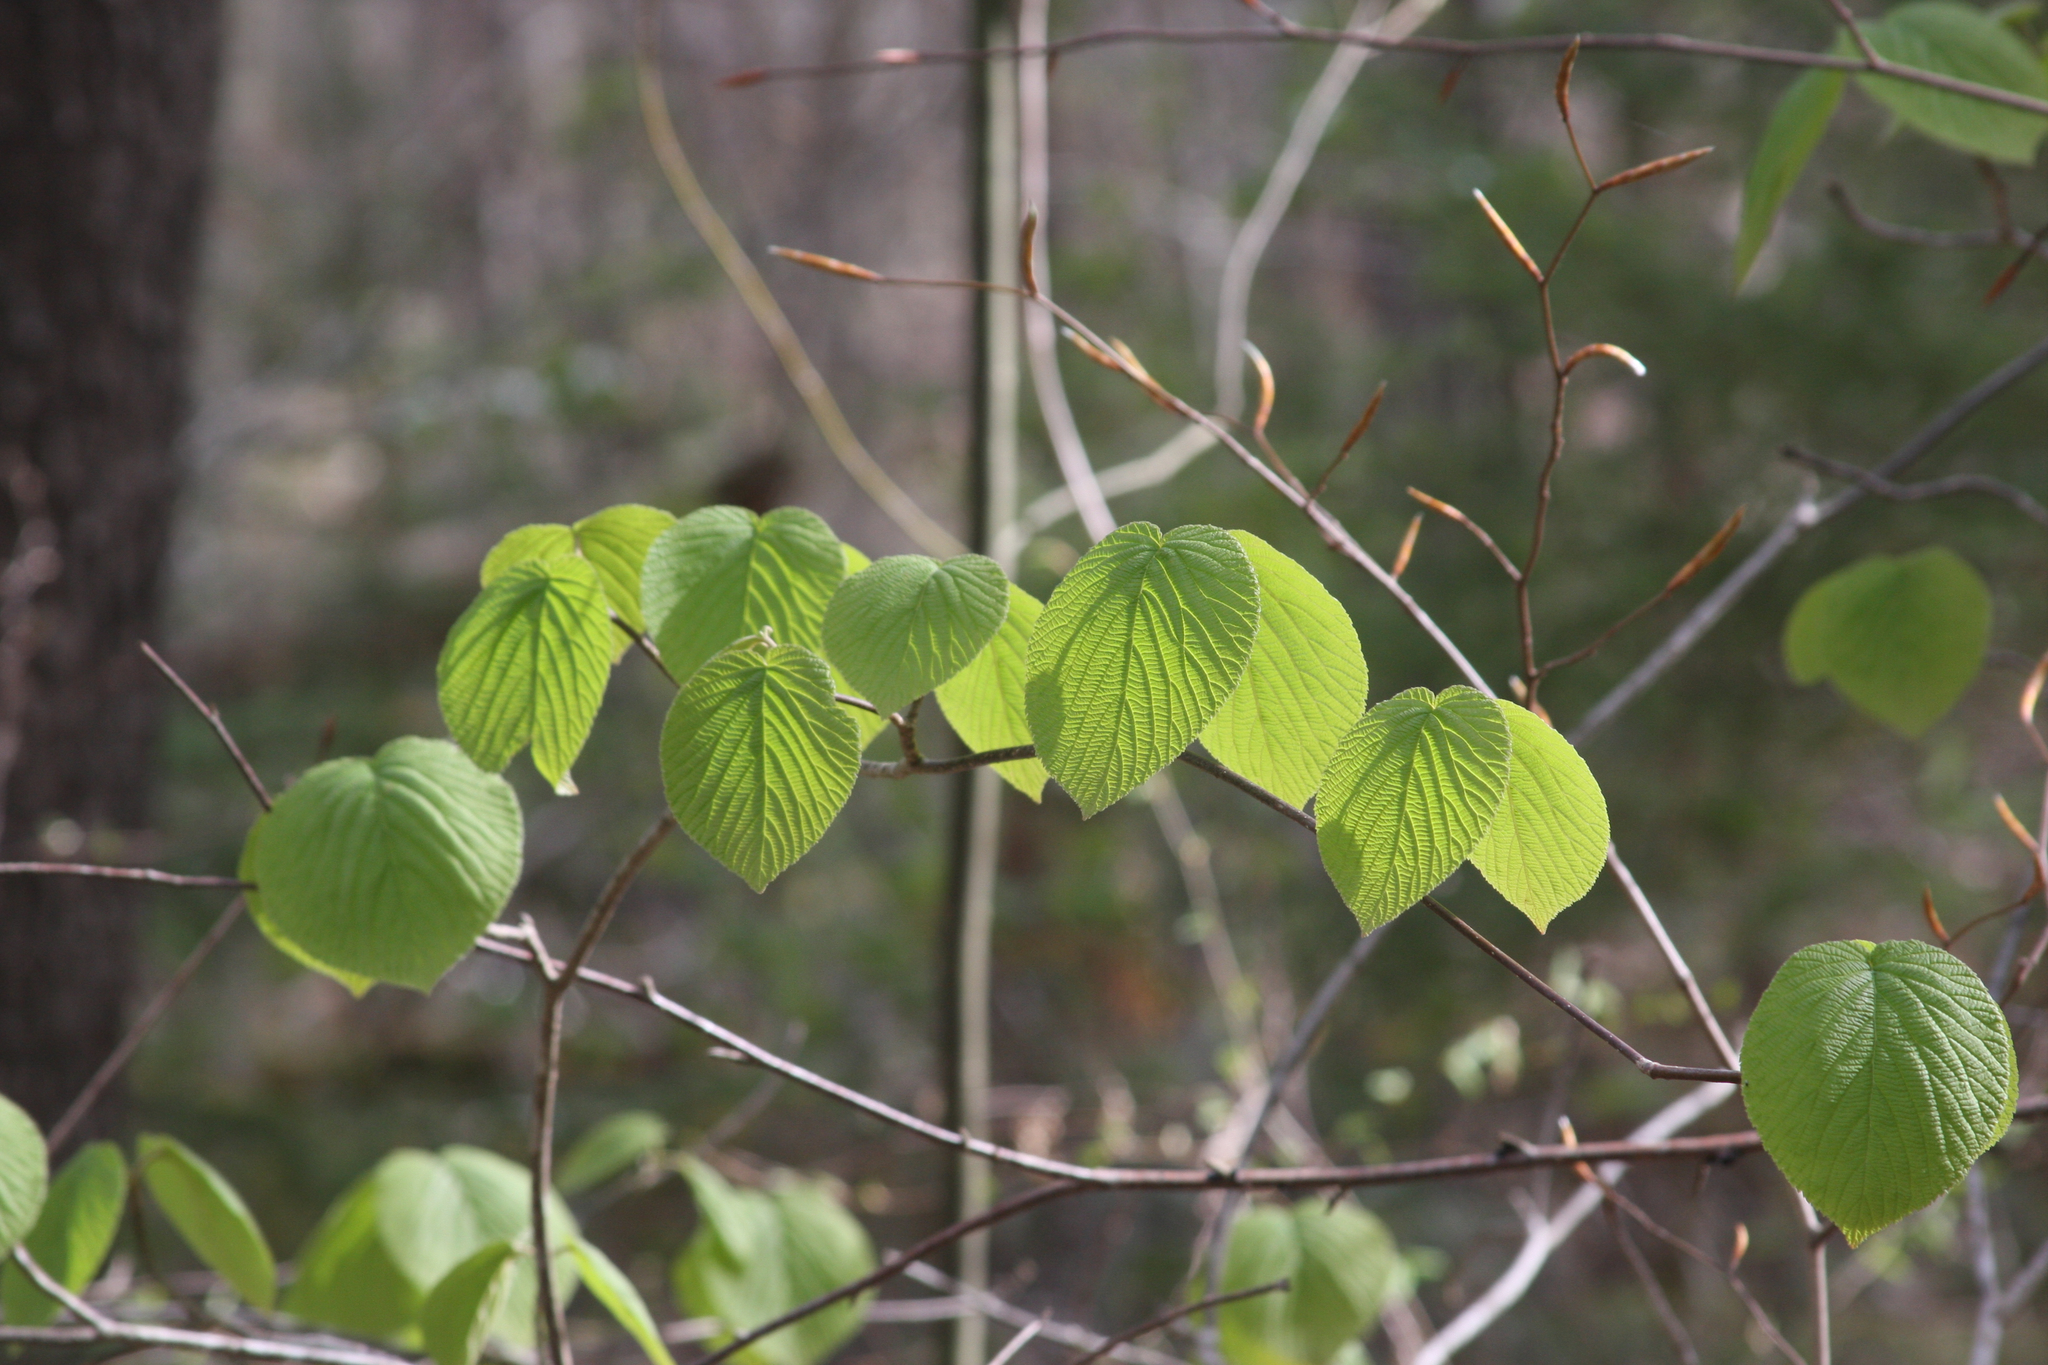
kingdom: Plantae
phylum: Tracheophyta
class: Magnoliopsida
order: Dipsacales
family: Viburnaceae
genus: Viburnum
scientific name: Viburnum lantanoides
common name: Hobblebush
